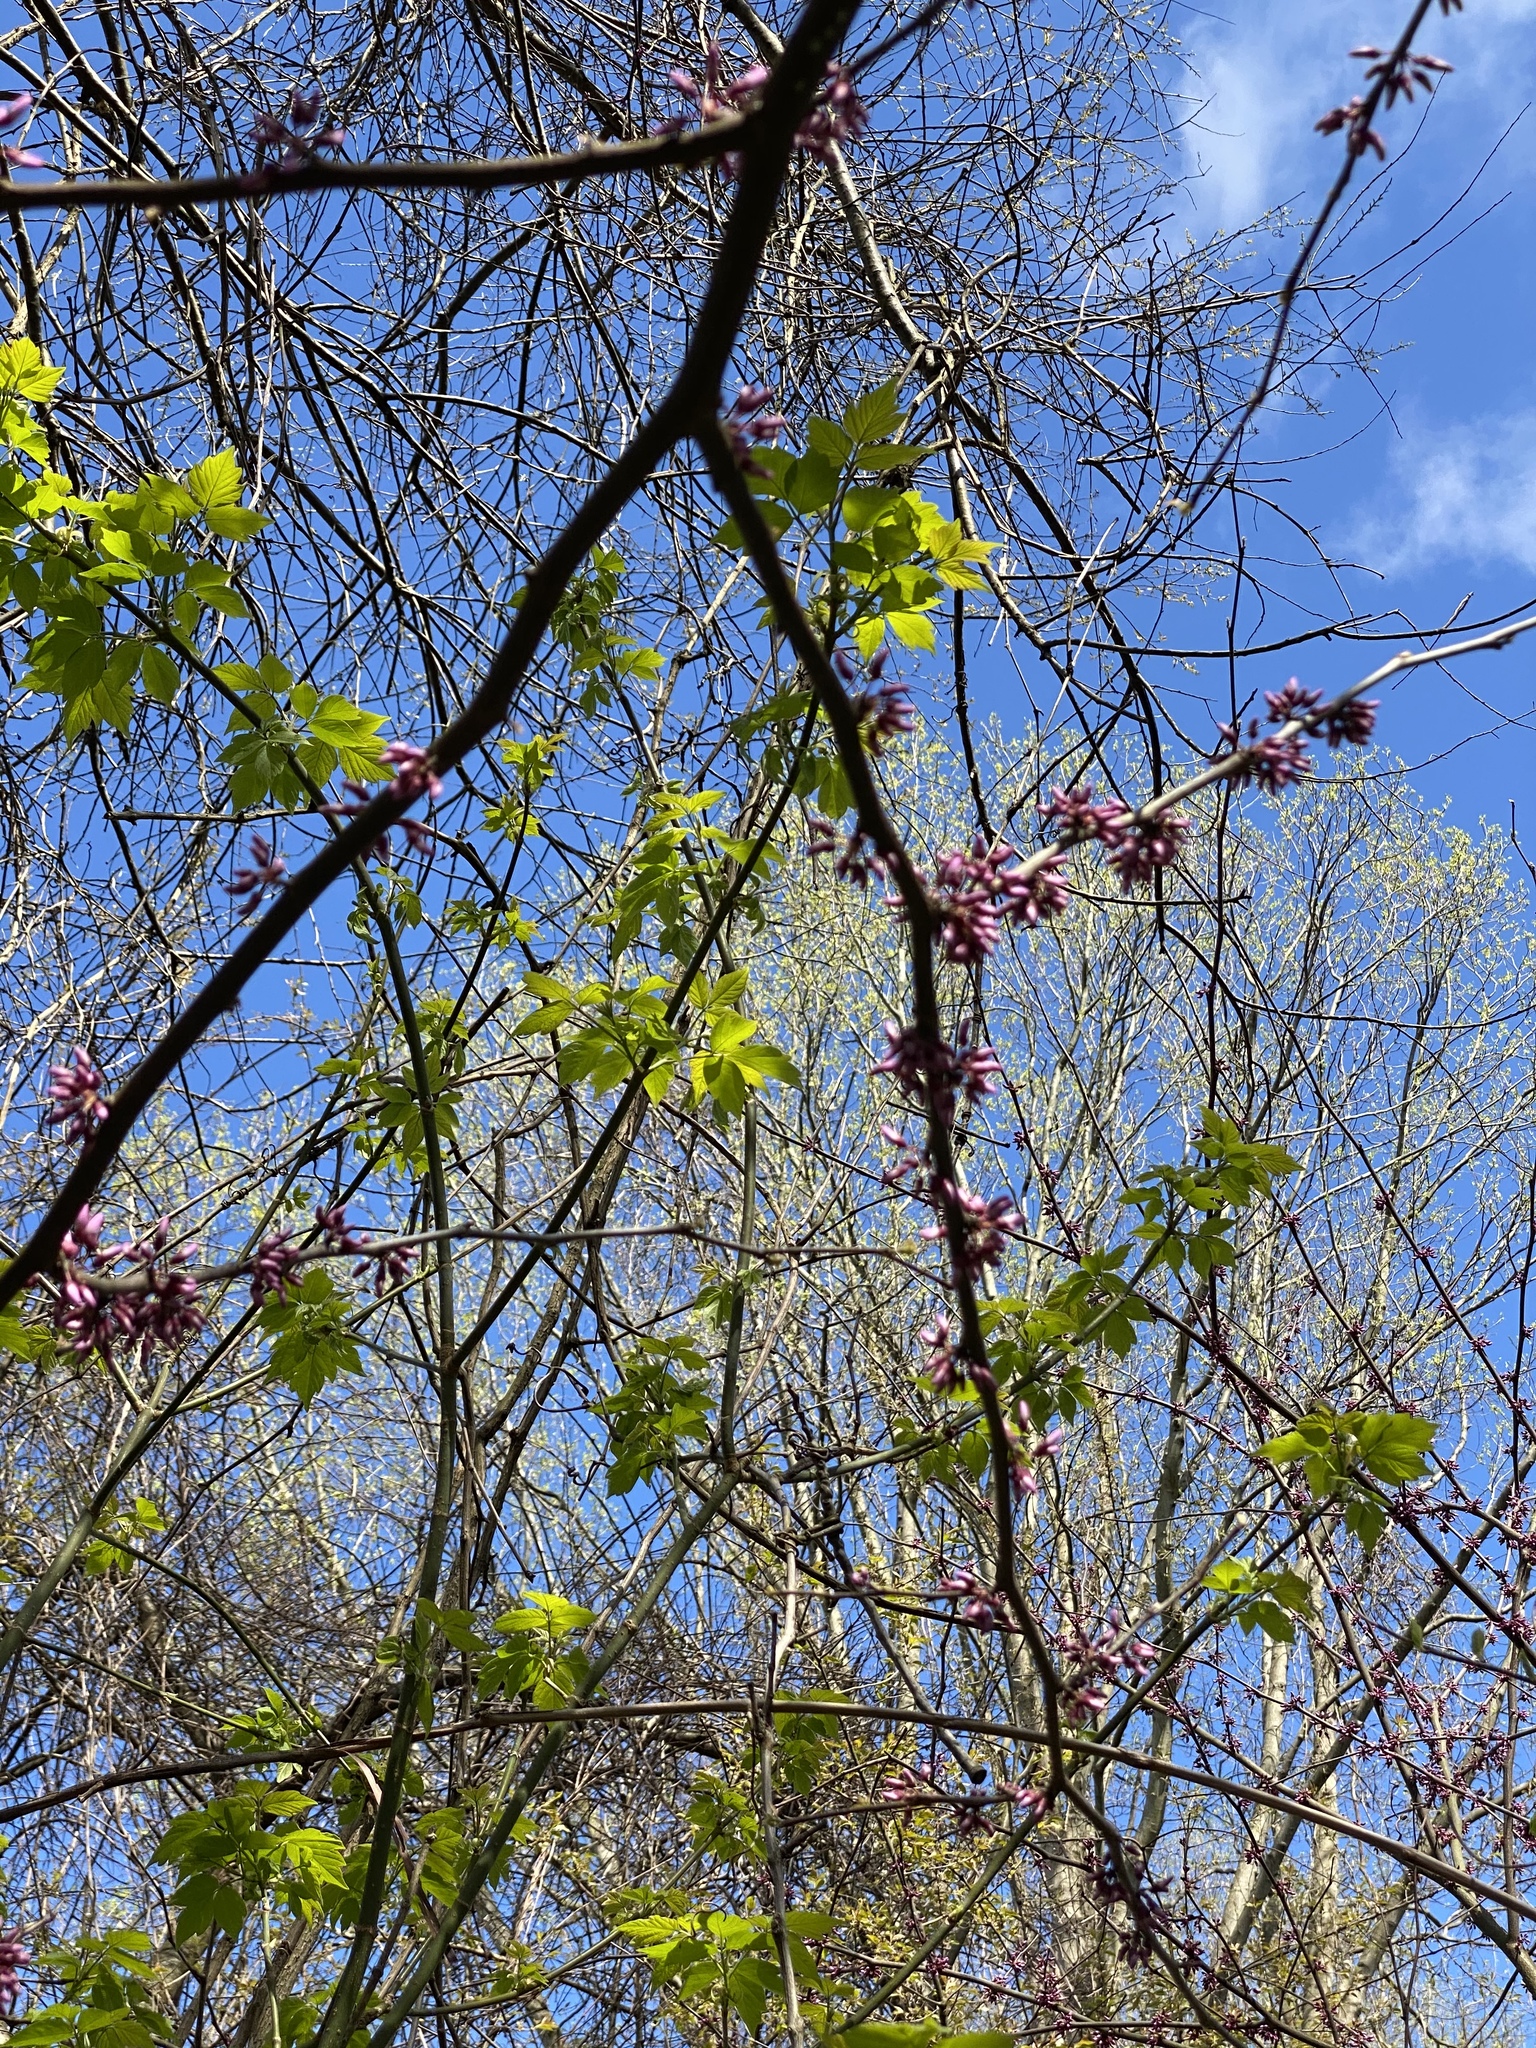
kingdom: Plantae
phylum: Tracheophyta
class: Magnoliopsida
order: Fabales
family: Fabaceae
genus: Cercis
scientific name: Cercis canadensis
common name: Eastern redbud
